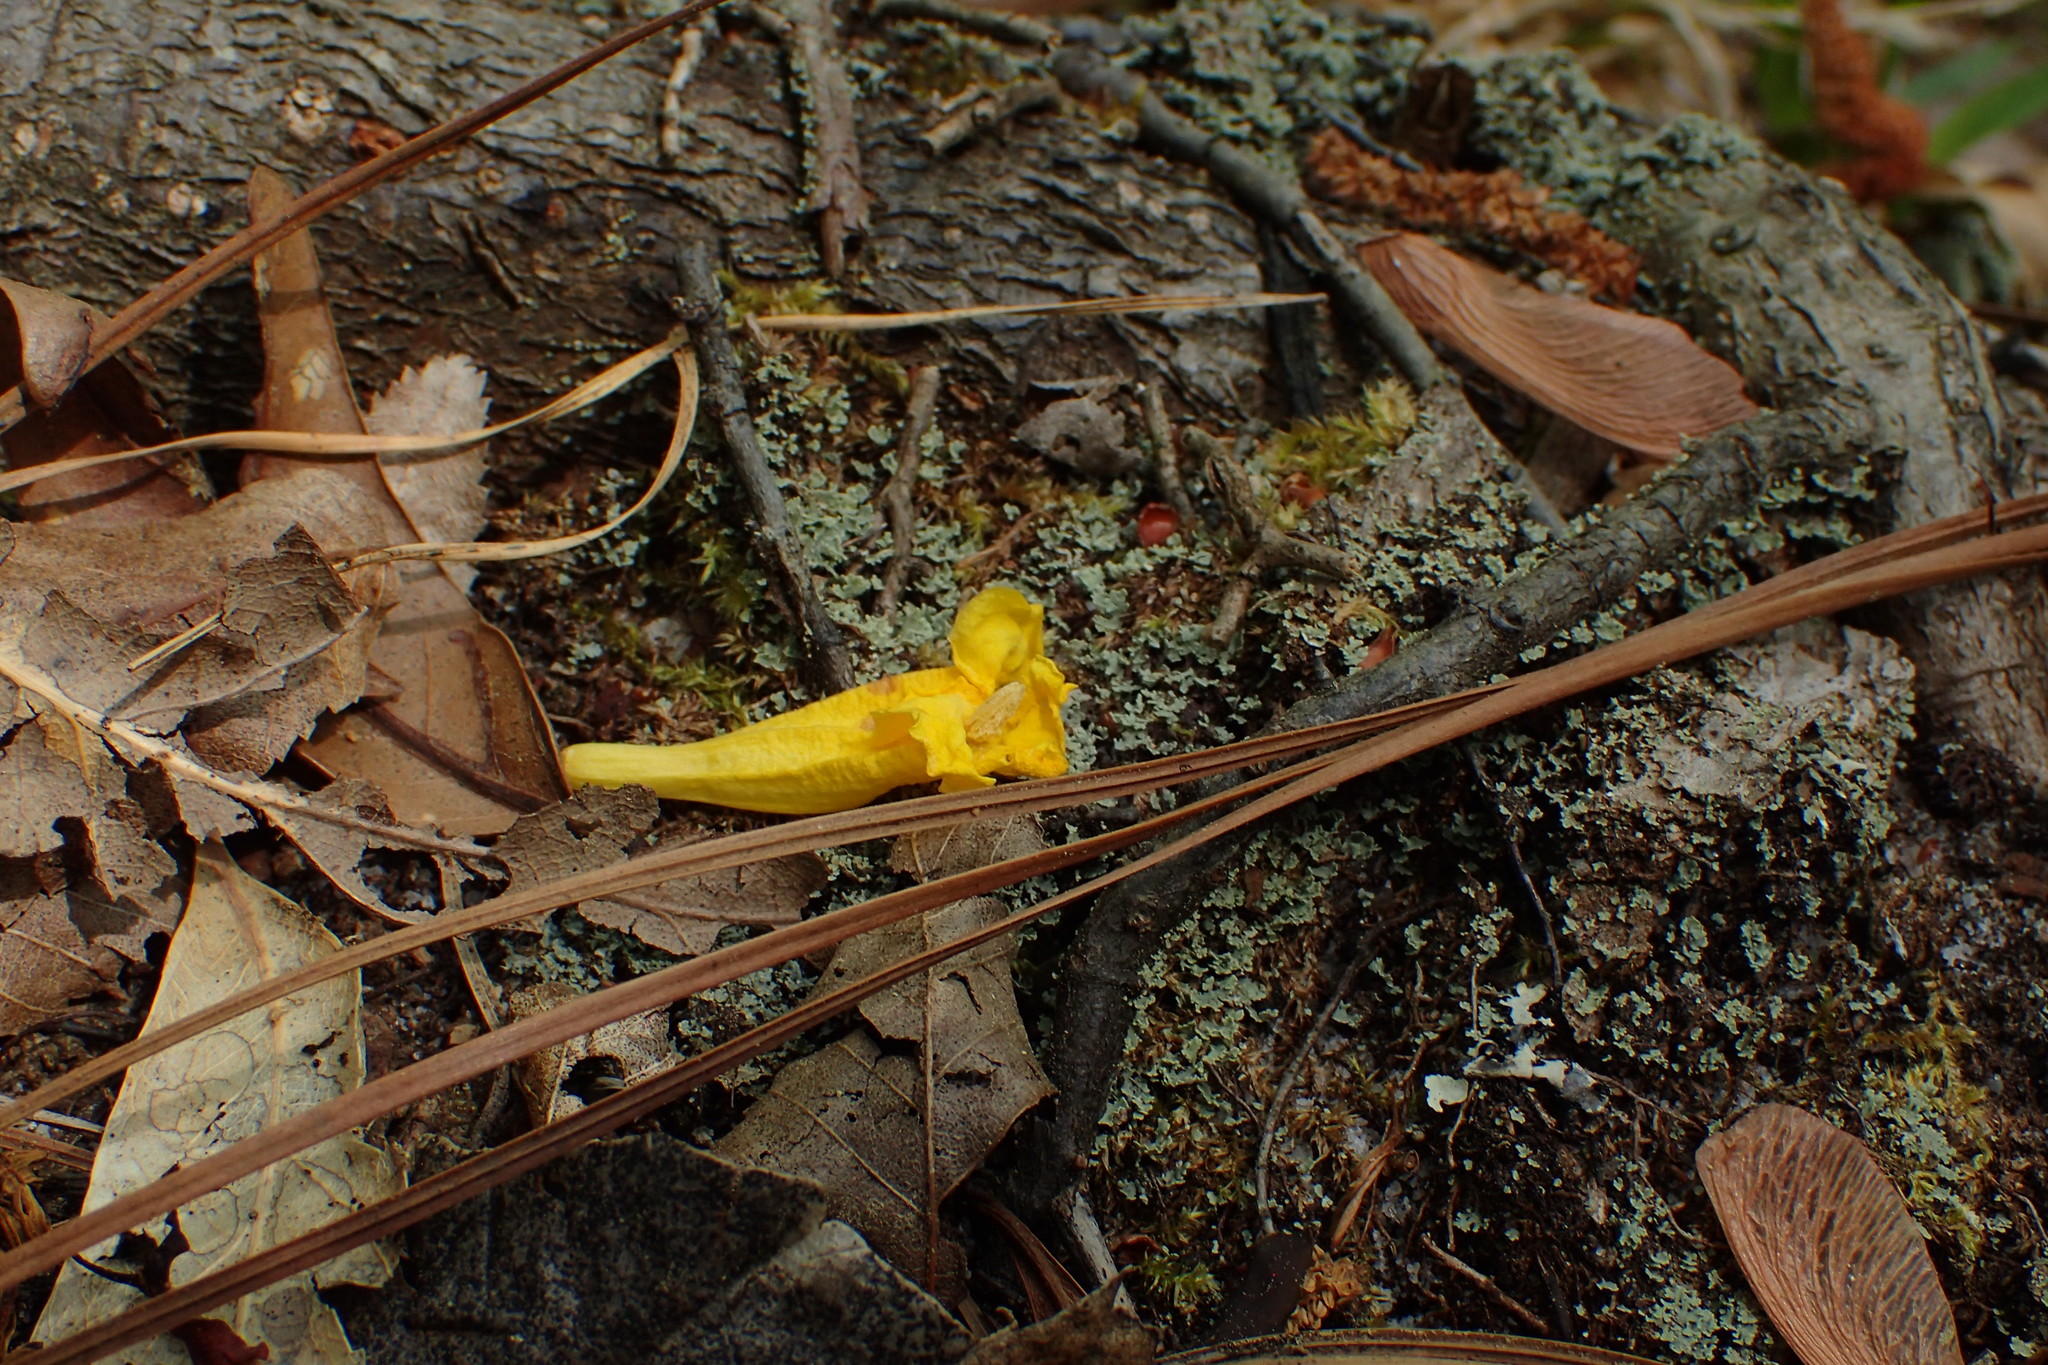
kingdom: Plantae
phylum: Tracheophyta
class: Magnoliopsida
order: Gentianales
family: Gelsemiaceae
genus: Gelsemium
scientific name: Gelsemium sempervirens
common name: Carolina-jasmine
